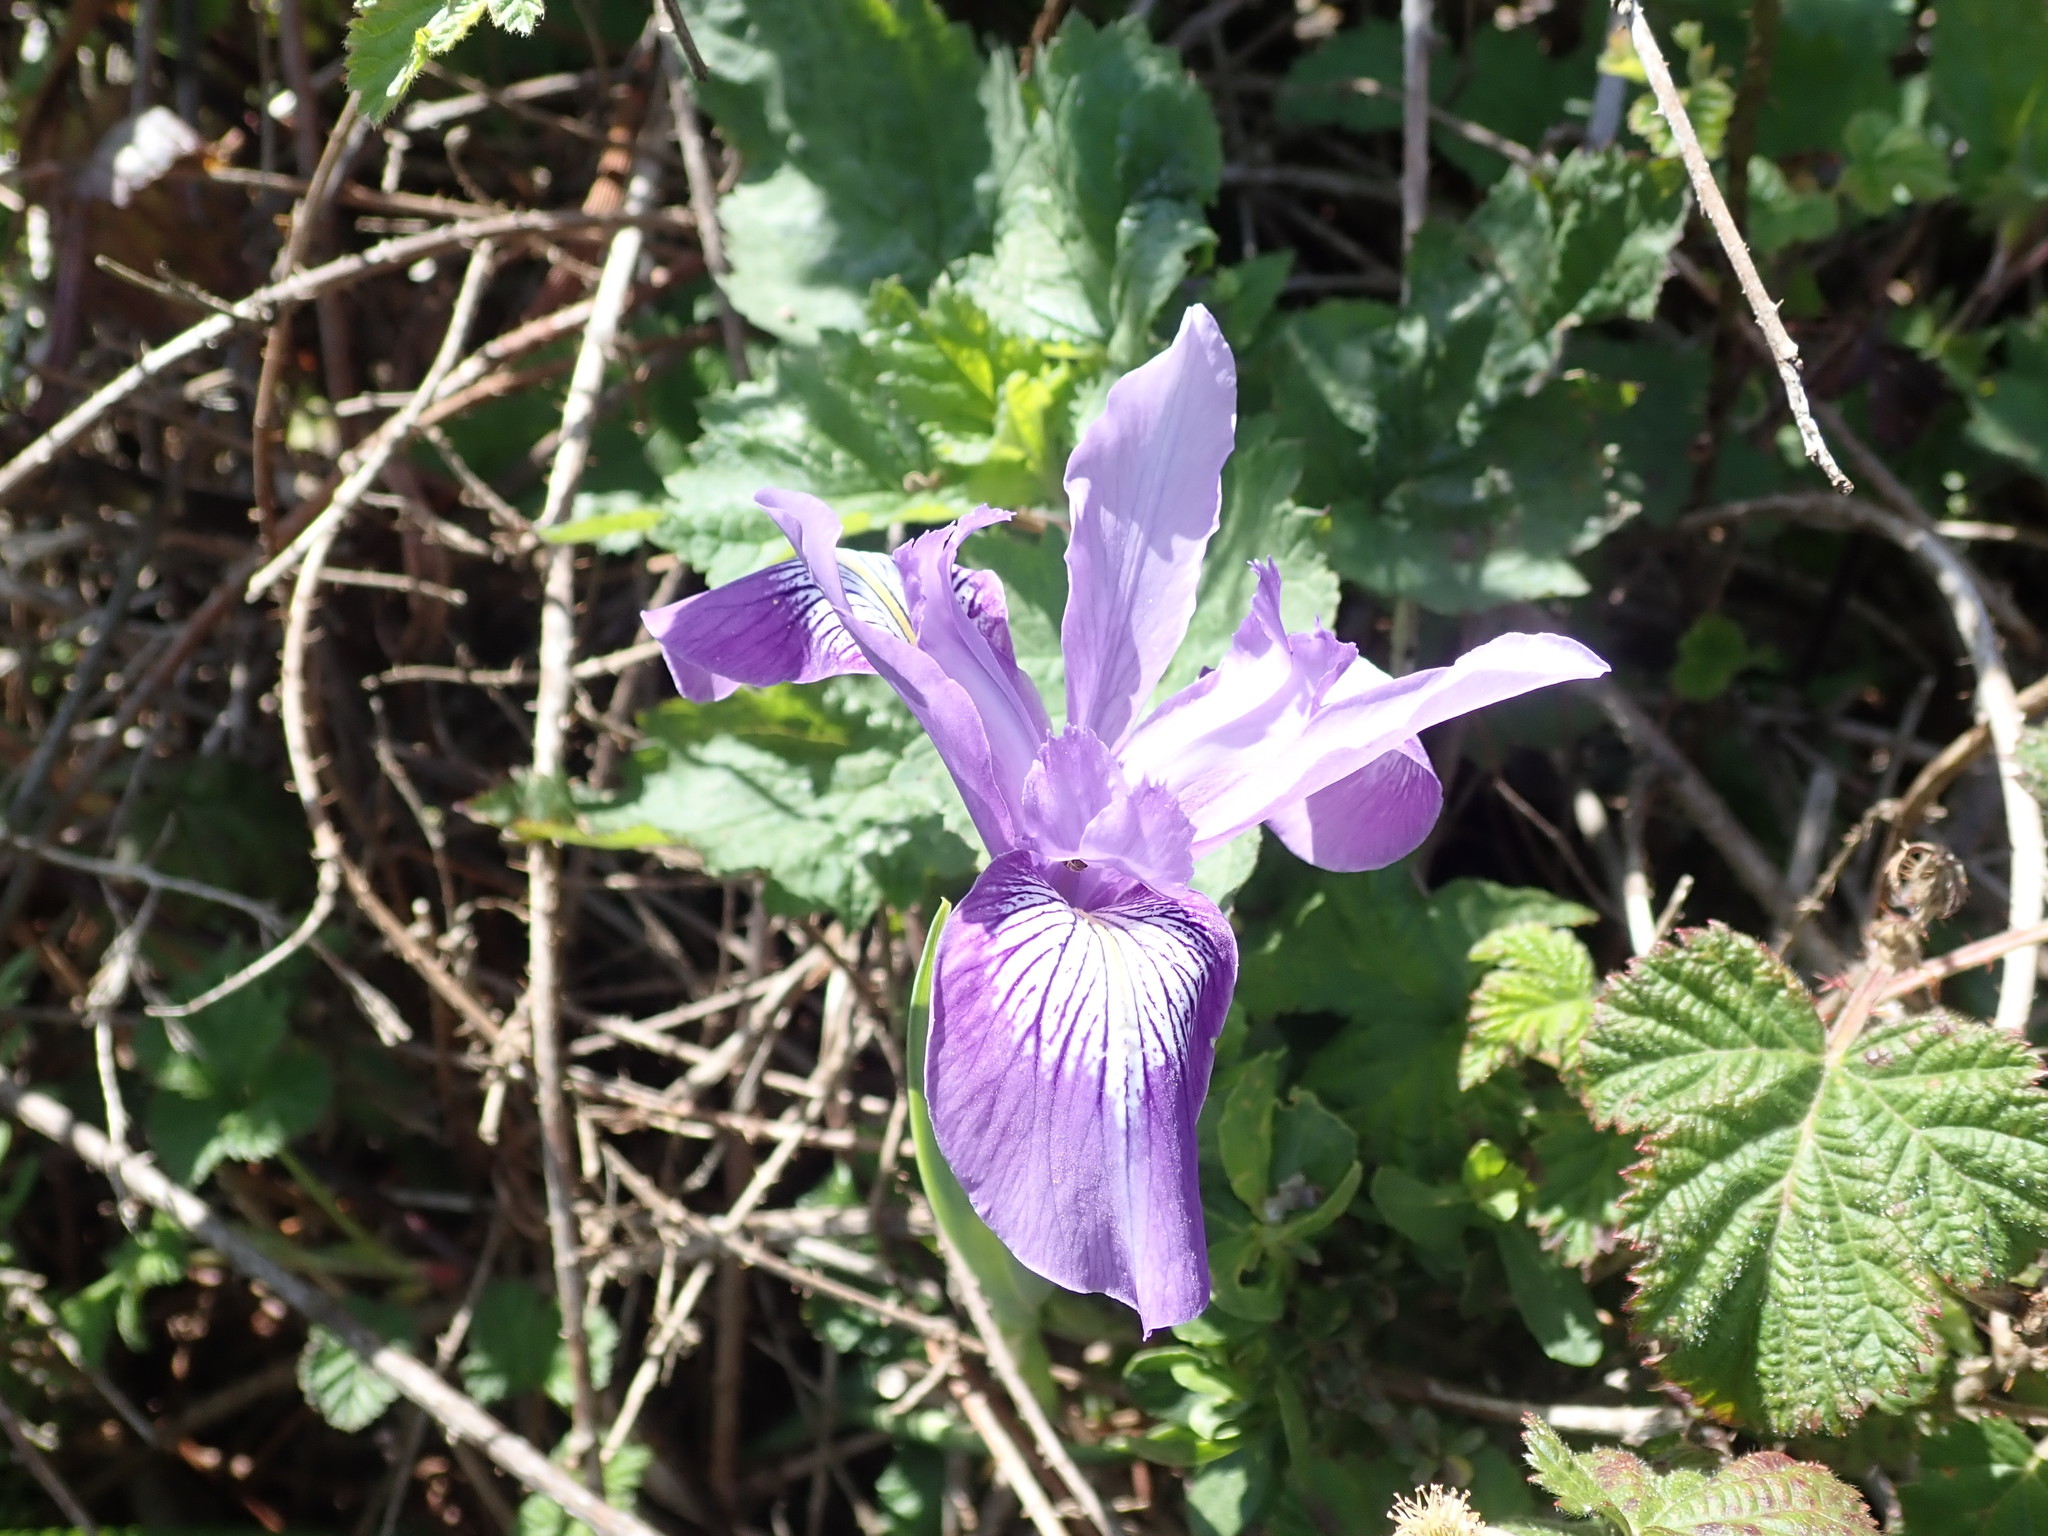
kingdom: Plantae
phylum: Tracheophyta
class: Liliopsida
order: Asparagales
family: Iridaceae
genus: Iris
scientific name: Iris douglasiana
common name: Marin iris
